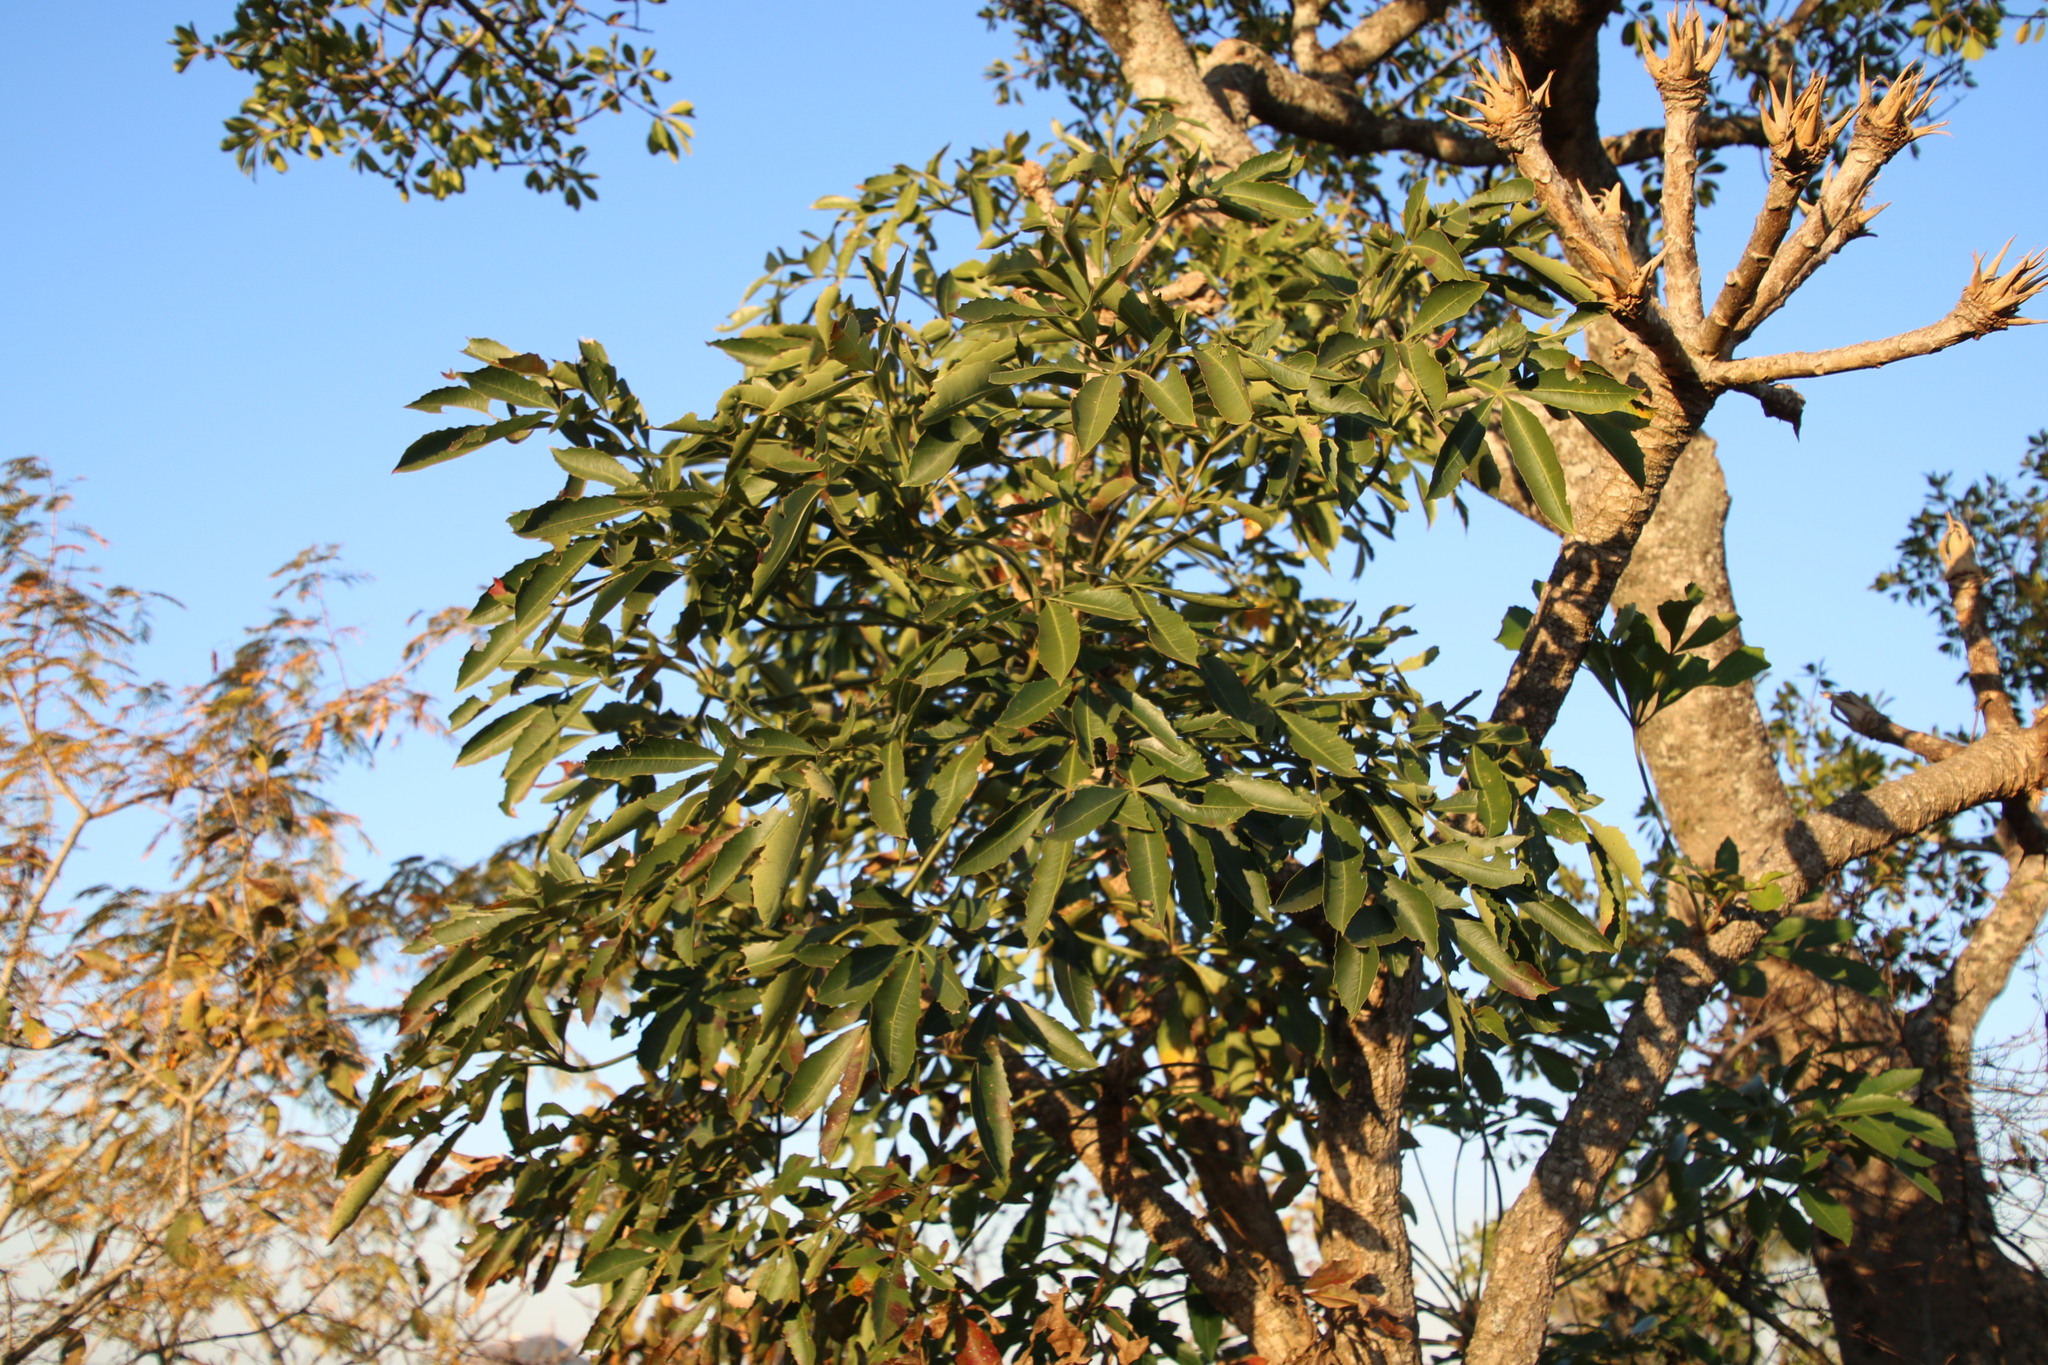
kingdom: Plantae
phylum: Tracheophyta
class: Magnoliopsida
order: Apiales
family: Araliaceae
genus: Cussonia
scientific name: Cussonia spicata
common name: Common cabbagetree
